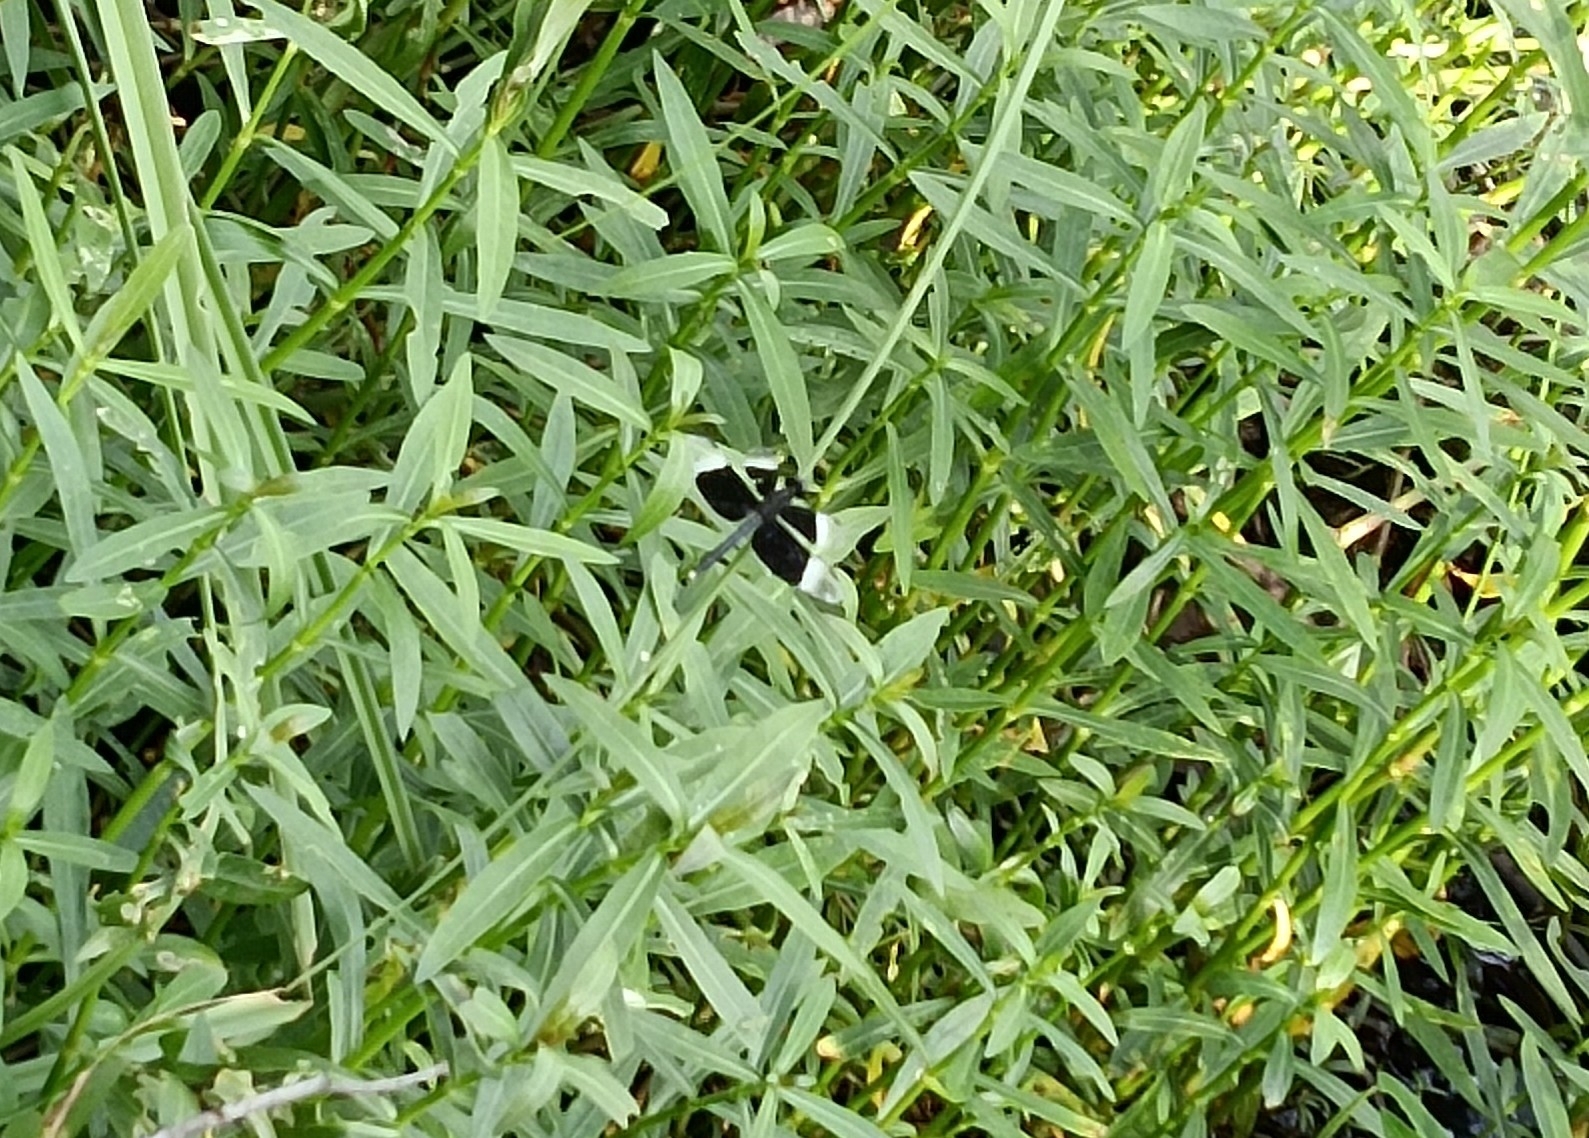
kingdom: Animalia
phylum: Arthropoda
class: Insecta
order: Odonata
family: Libellulidae
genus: Neurothemis
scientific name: Neurothemis tullia
